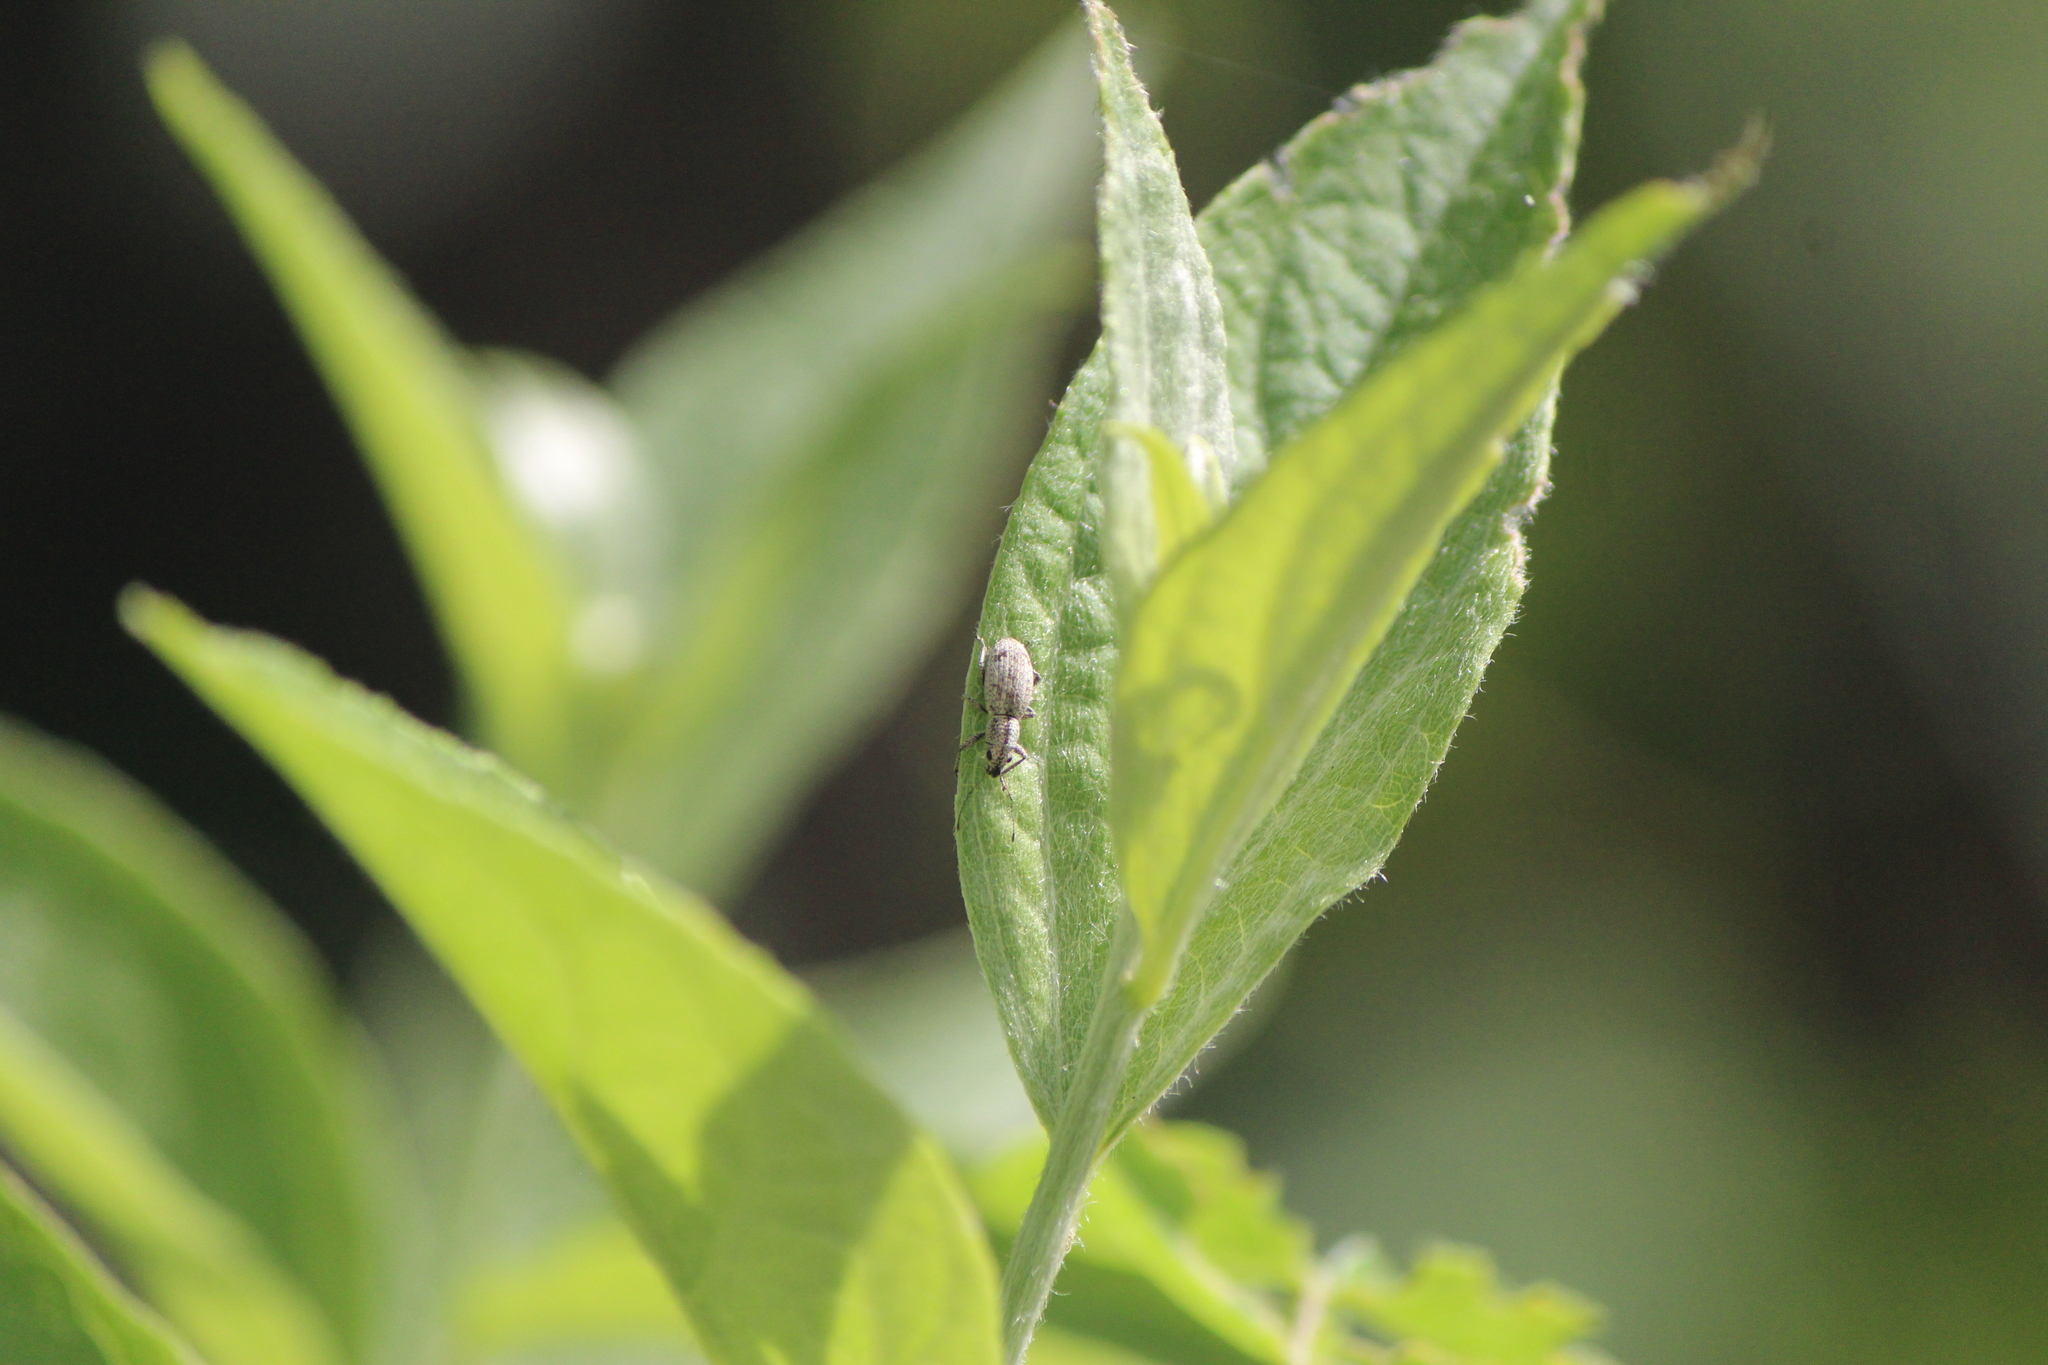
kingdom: Animalia
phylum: Arthropoda
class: Insecta
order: Coleoptera
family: Curculionidae
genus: Mitostylus
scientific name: Mitostylus setosus
